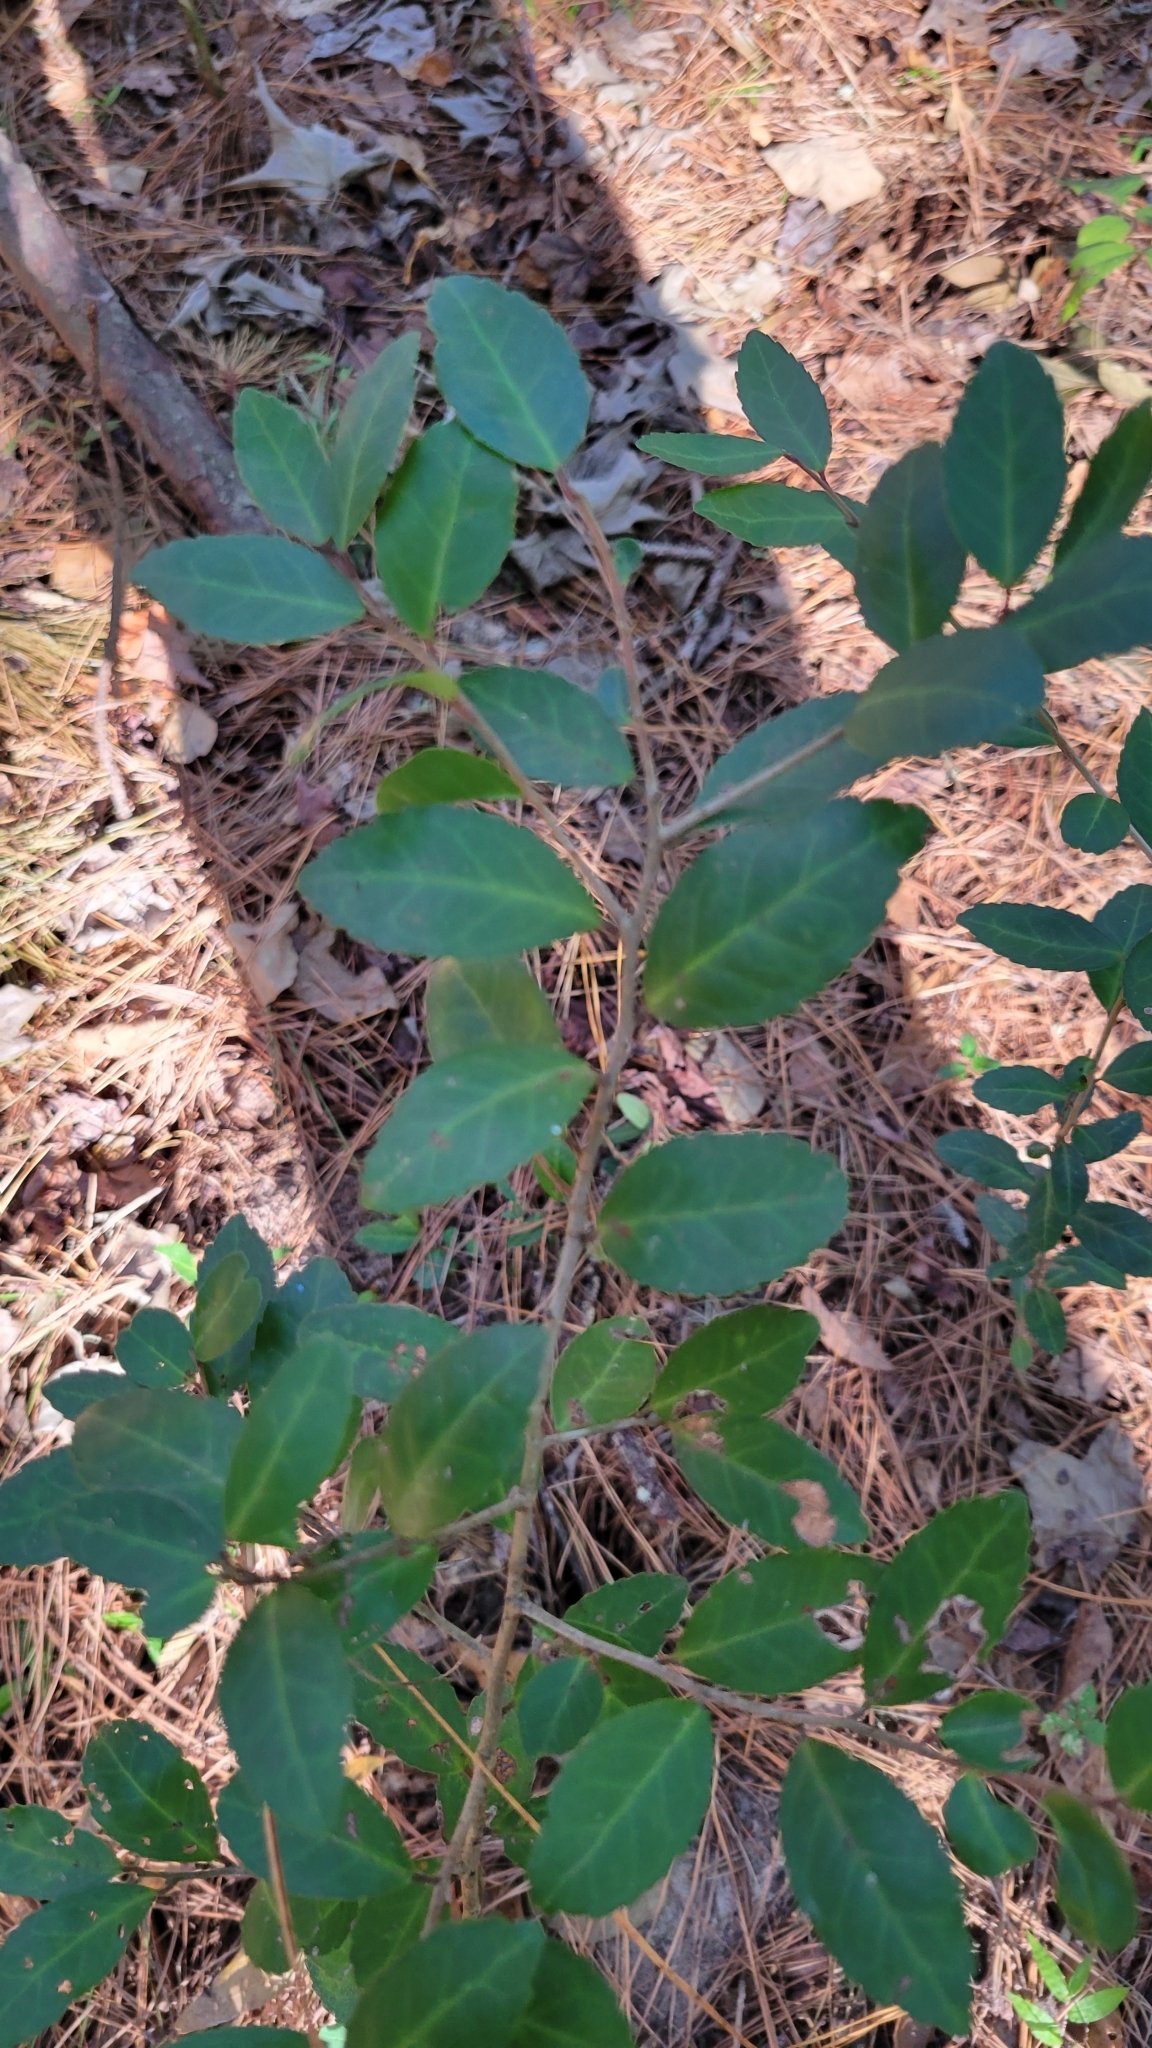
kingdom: Plantae
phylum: Tracheophyta
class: Magnoliopsida
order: Aquifoliales
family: Aquifoliaceae
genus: Ilex
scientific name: Ilex vomitoria
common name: Yaupon holly
